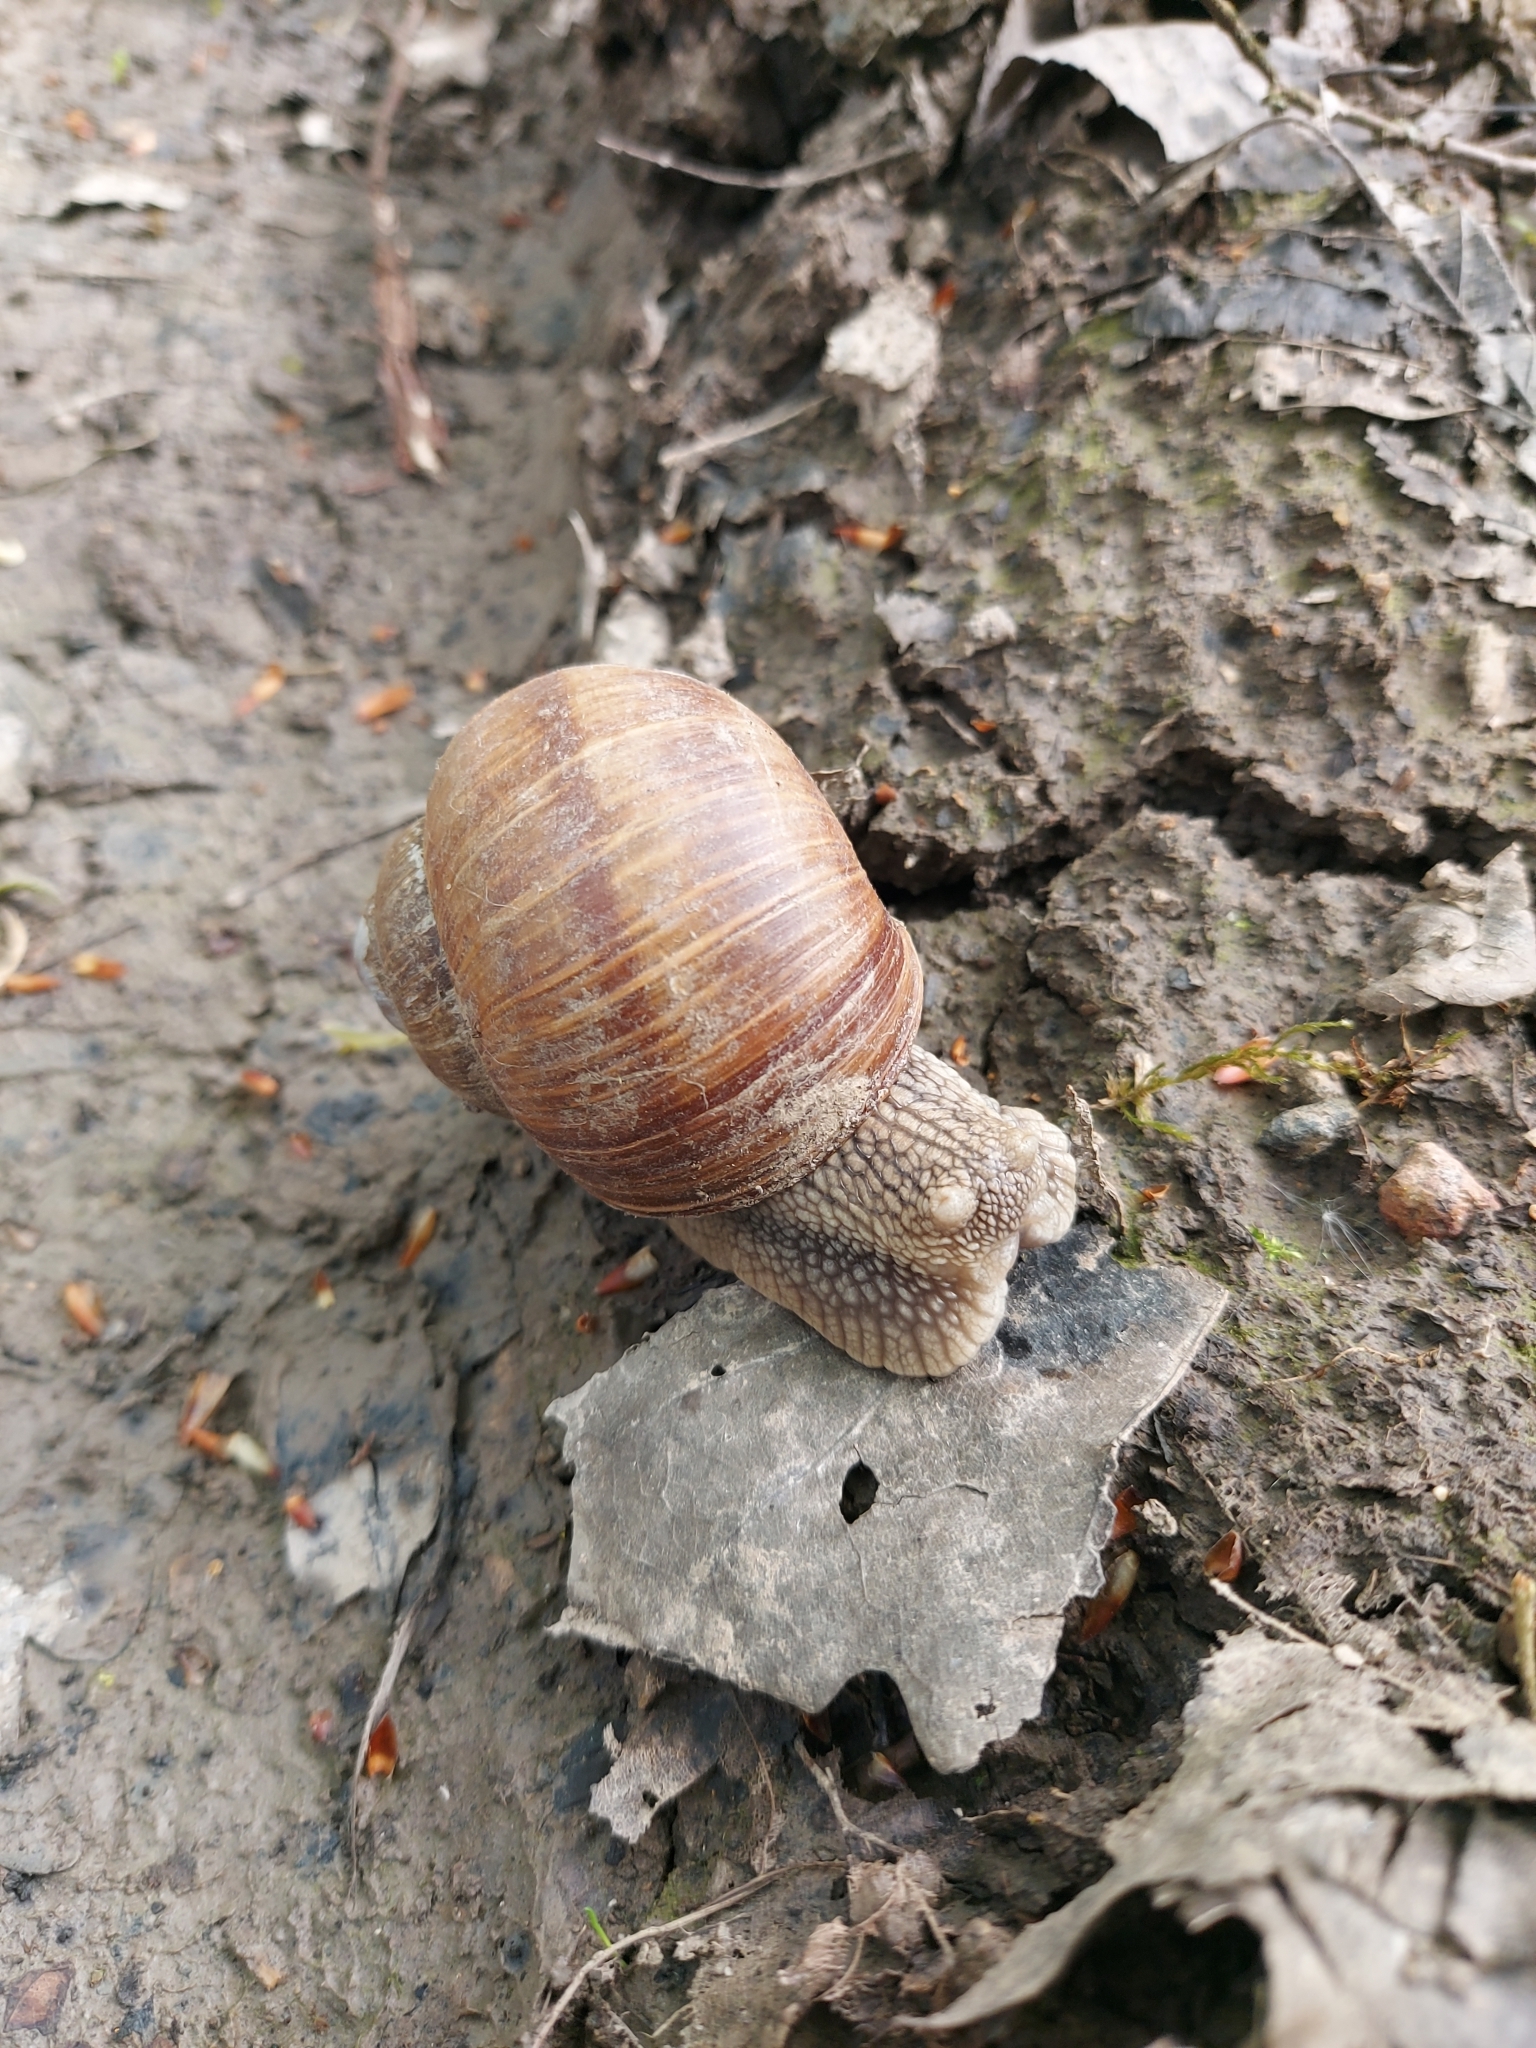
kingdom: Animalia
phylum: Mollusca
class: Gastropoda
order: Stylommatophora
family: Helicidae
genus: Helix
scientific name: Helix pomatia
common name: Roman snail
